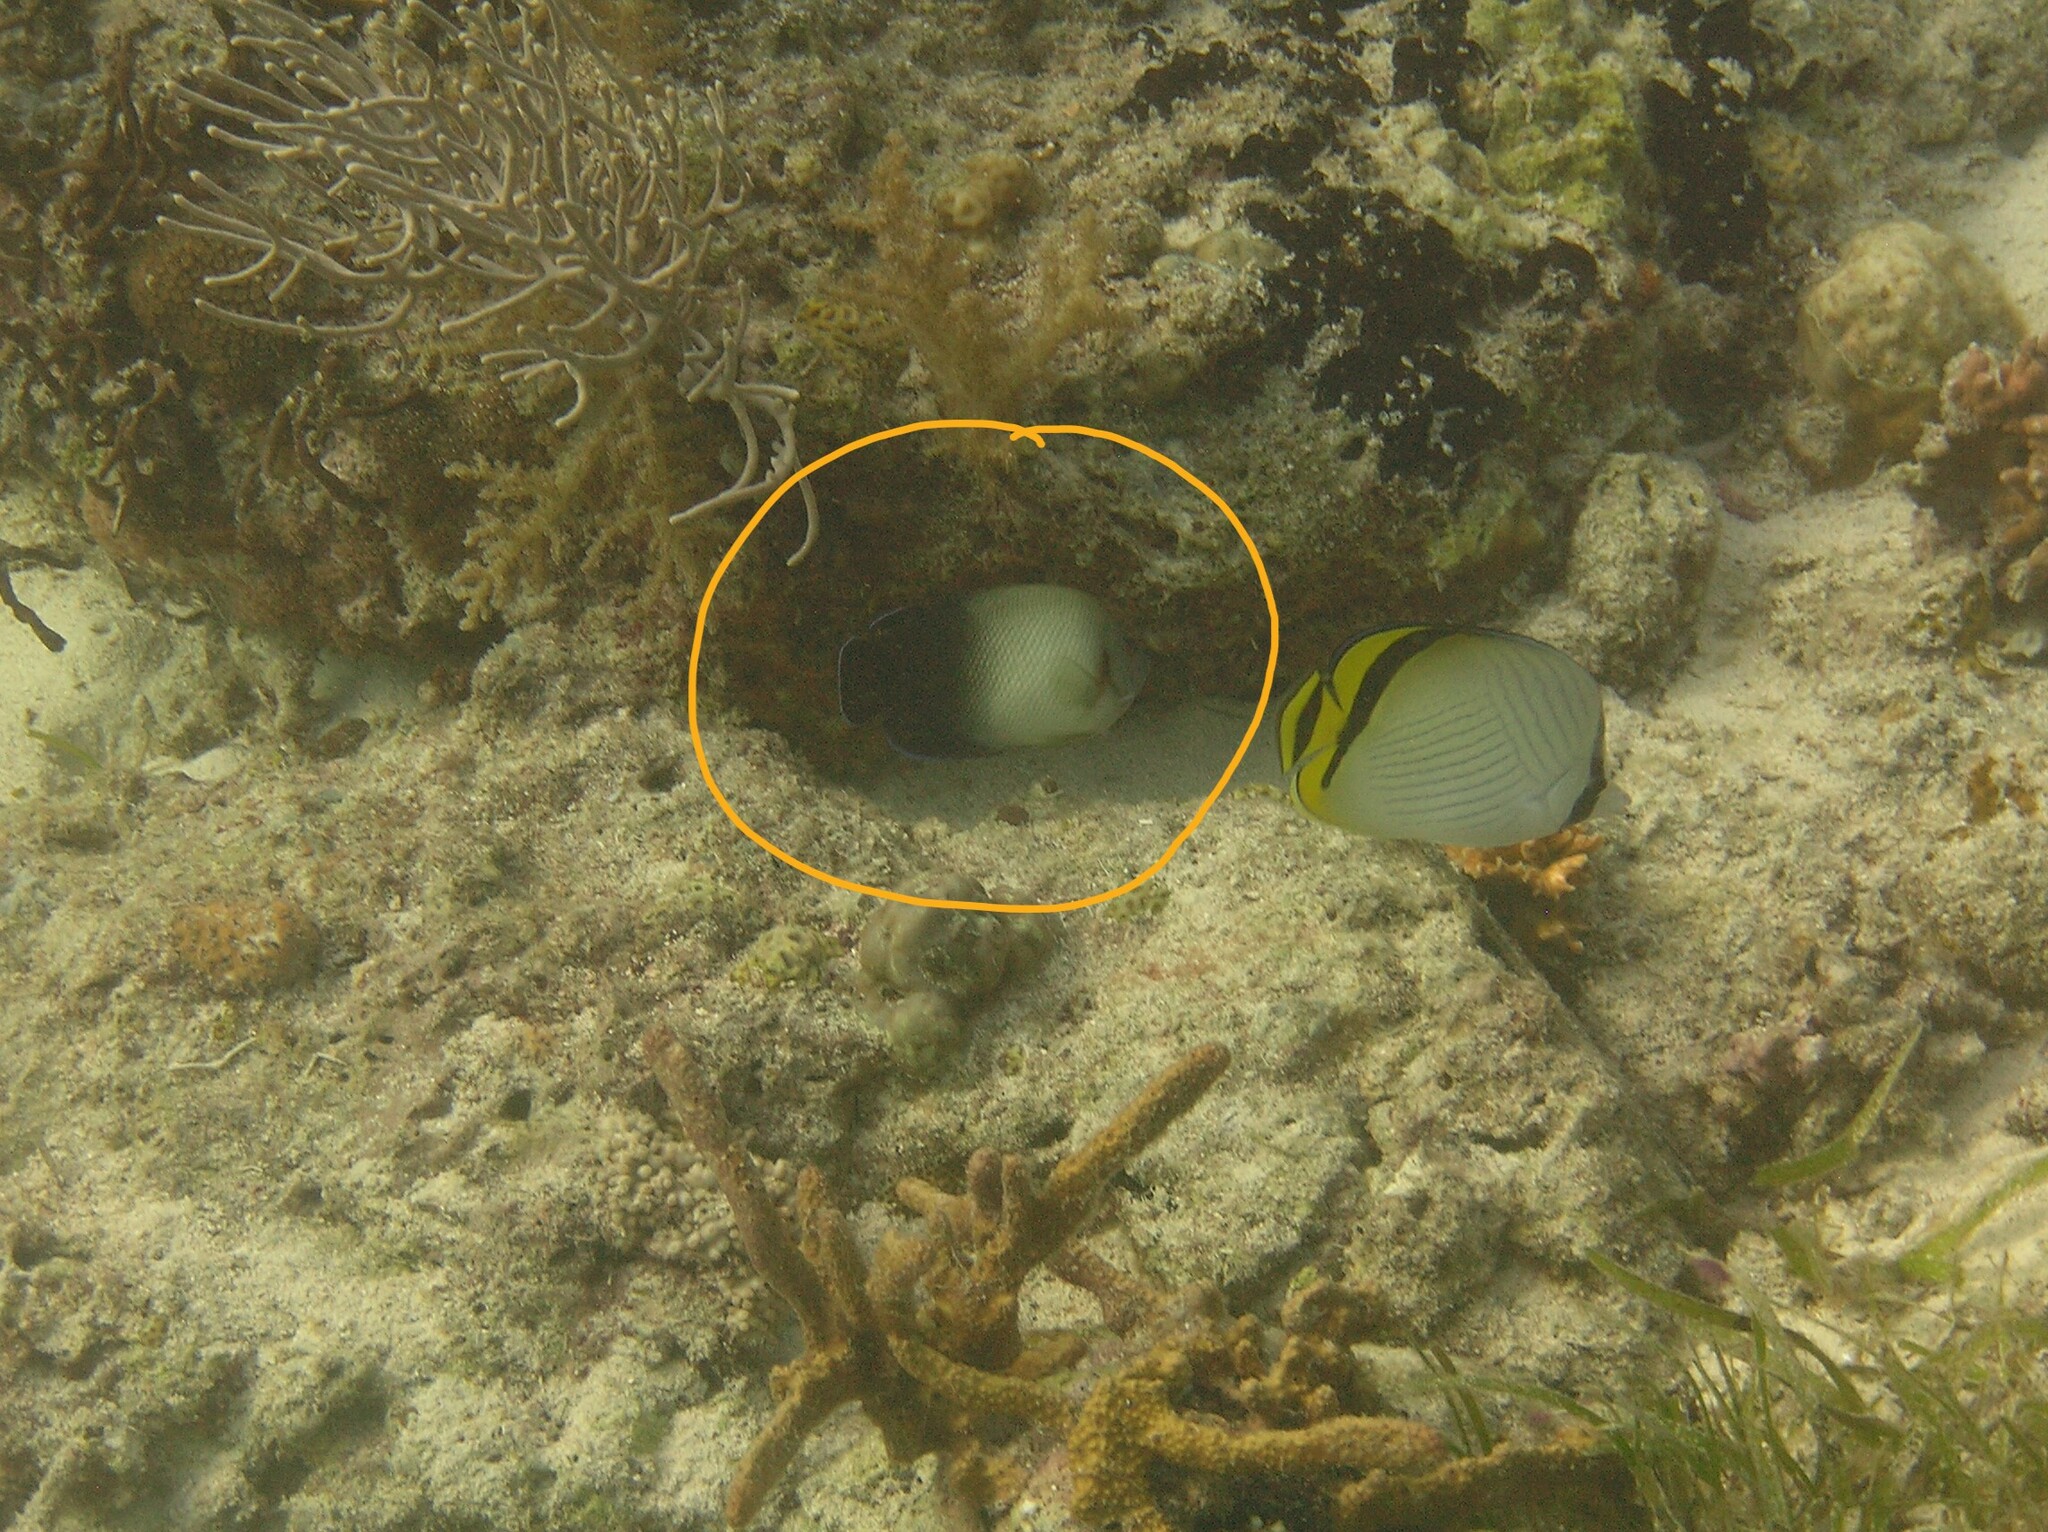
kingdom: Animalia
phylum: Chordata
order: Perciformes
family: Pomacanthidae
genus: Centropyge
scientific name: Centropyge vrolikii
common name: Pearlscale angelfish
